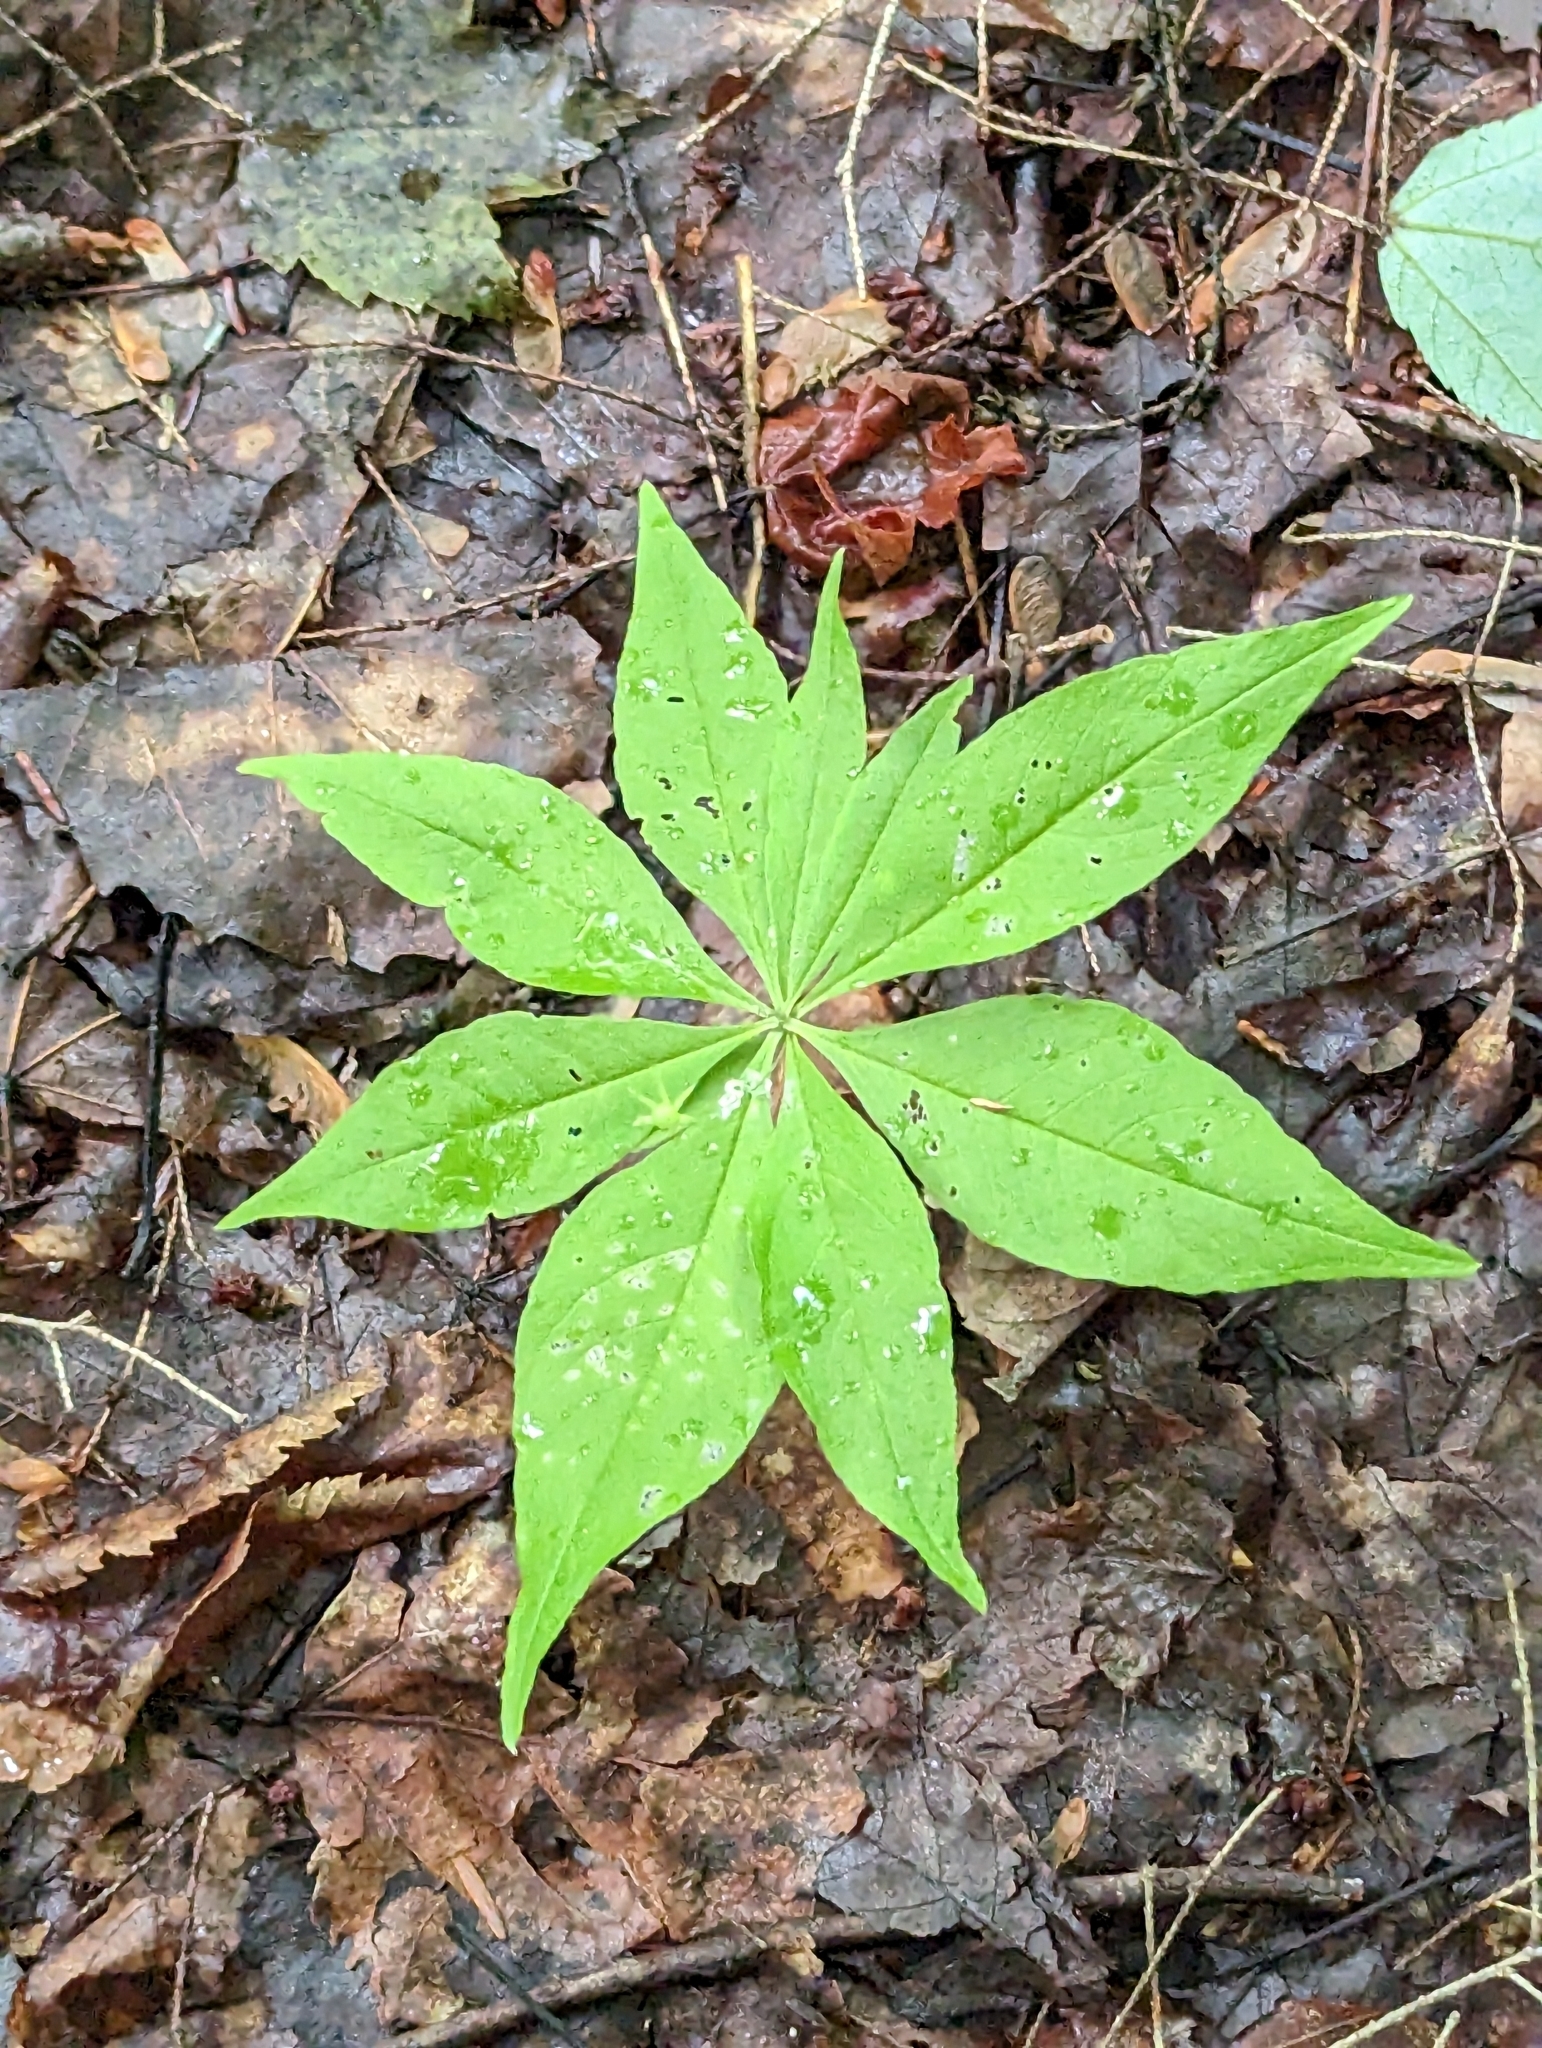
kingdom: Plantae
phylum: Tracheophyta
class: Magnoliopsida
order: Ericales
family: Primulaceae
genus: Lysimachia
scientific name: Lysimachia borealis
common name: American starflower
